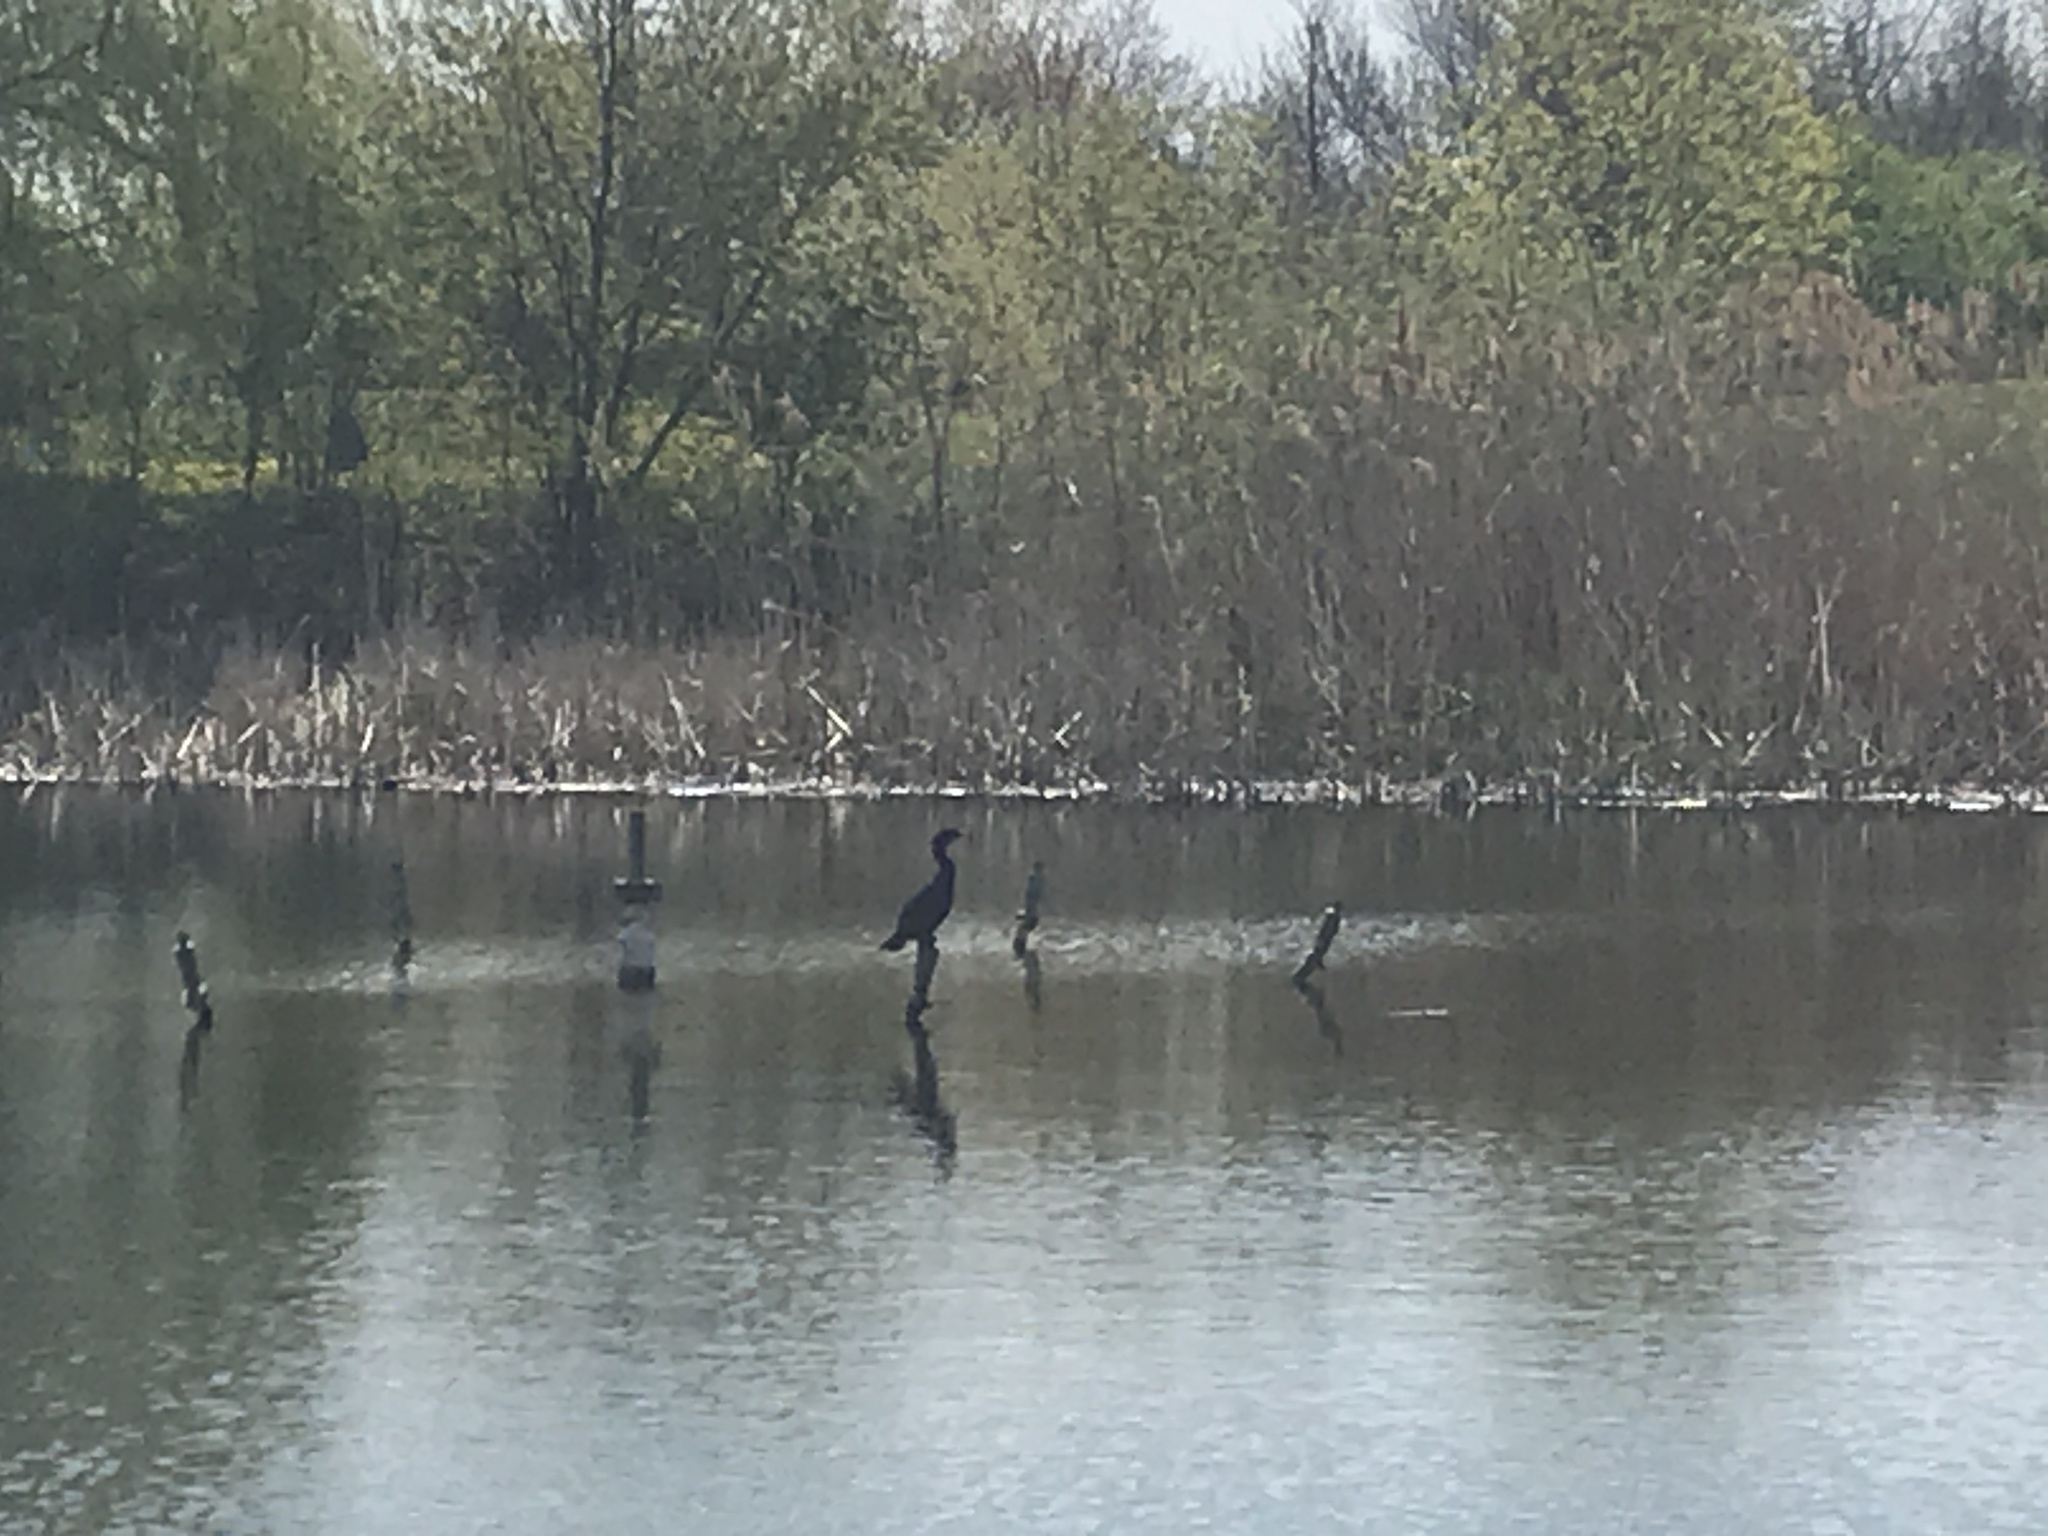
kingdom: Animalia
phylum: Chordata
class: Aves
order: Suliformes
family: Phalacrocoracidae
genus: Phalacrocorax
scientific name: Phalacrocorax auritus
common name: Double-crested cormorant
